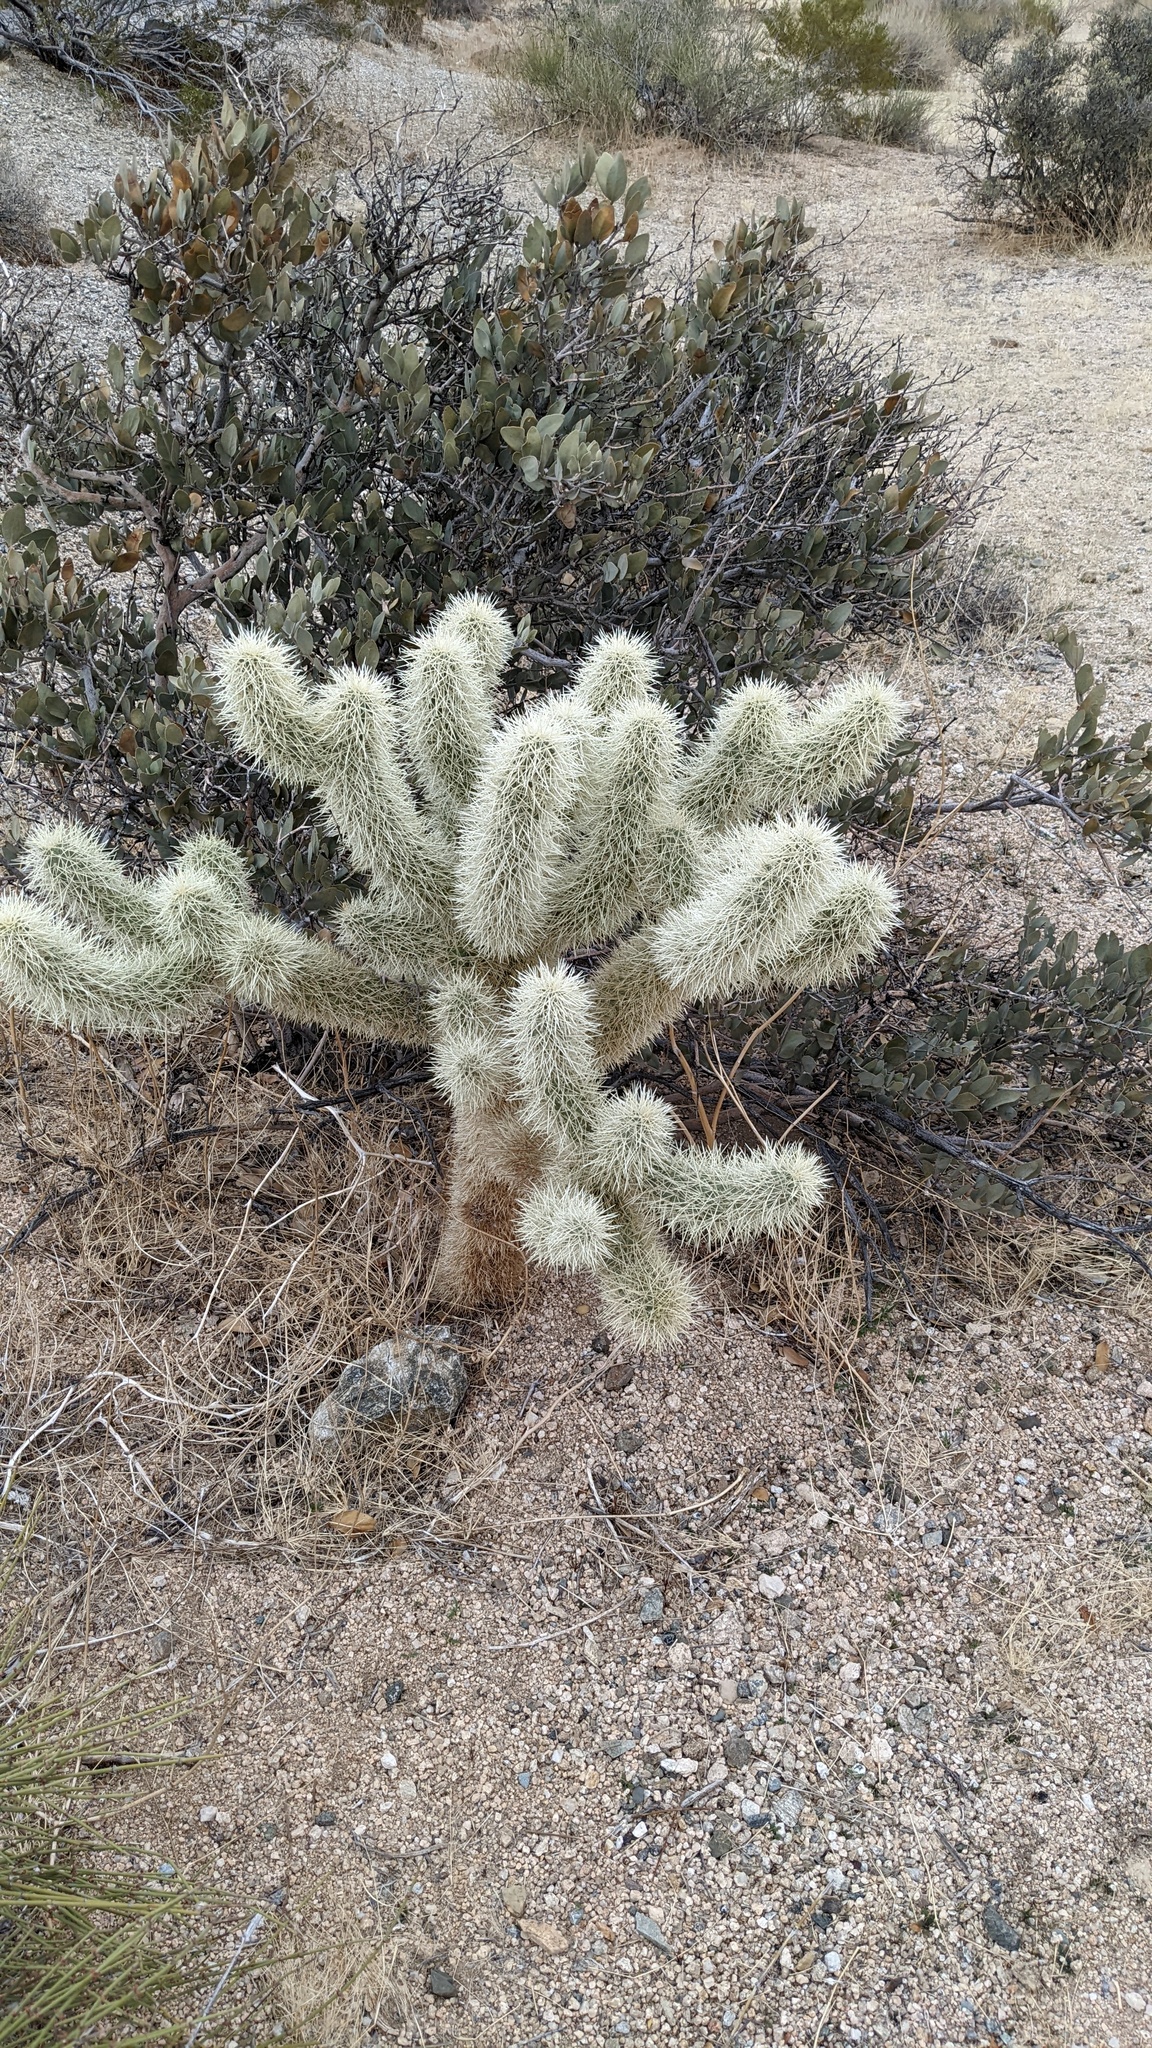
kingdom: Plantae
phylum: Tracheophyta
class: Magnoliopsida
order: Caryophyllales
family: Cactaceae
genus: Cylindropuntia
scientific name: Cylindropuntia fosbergii
